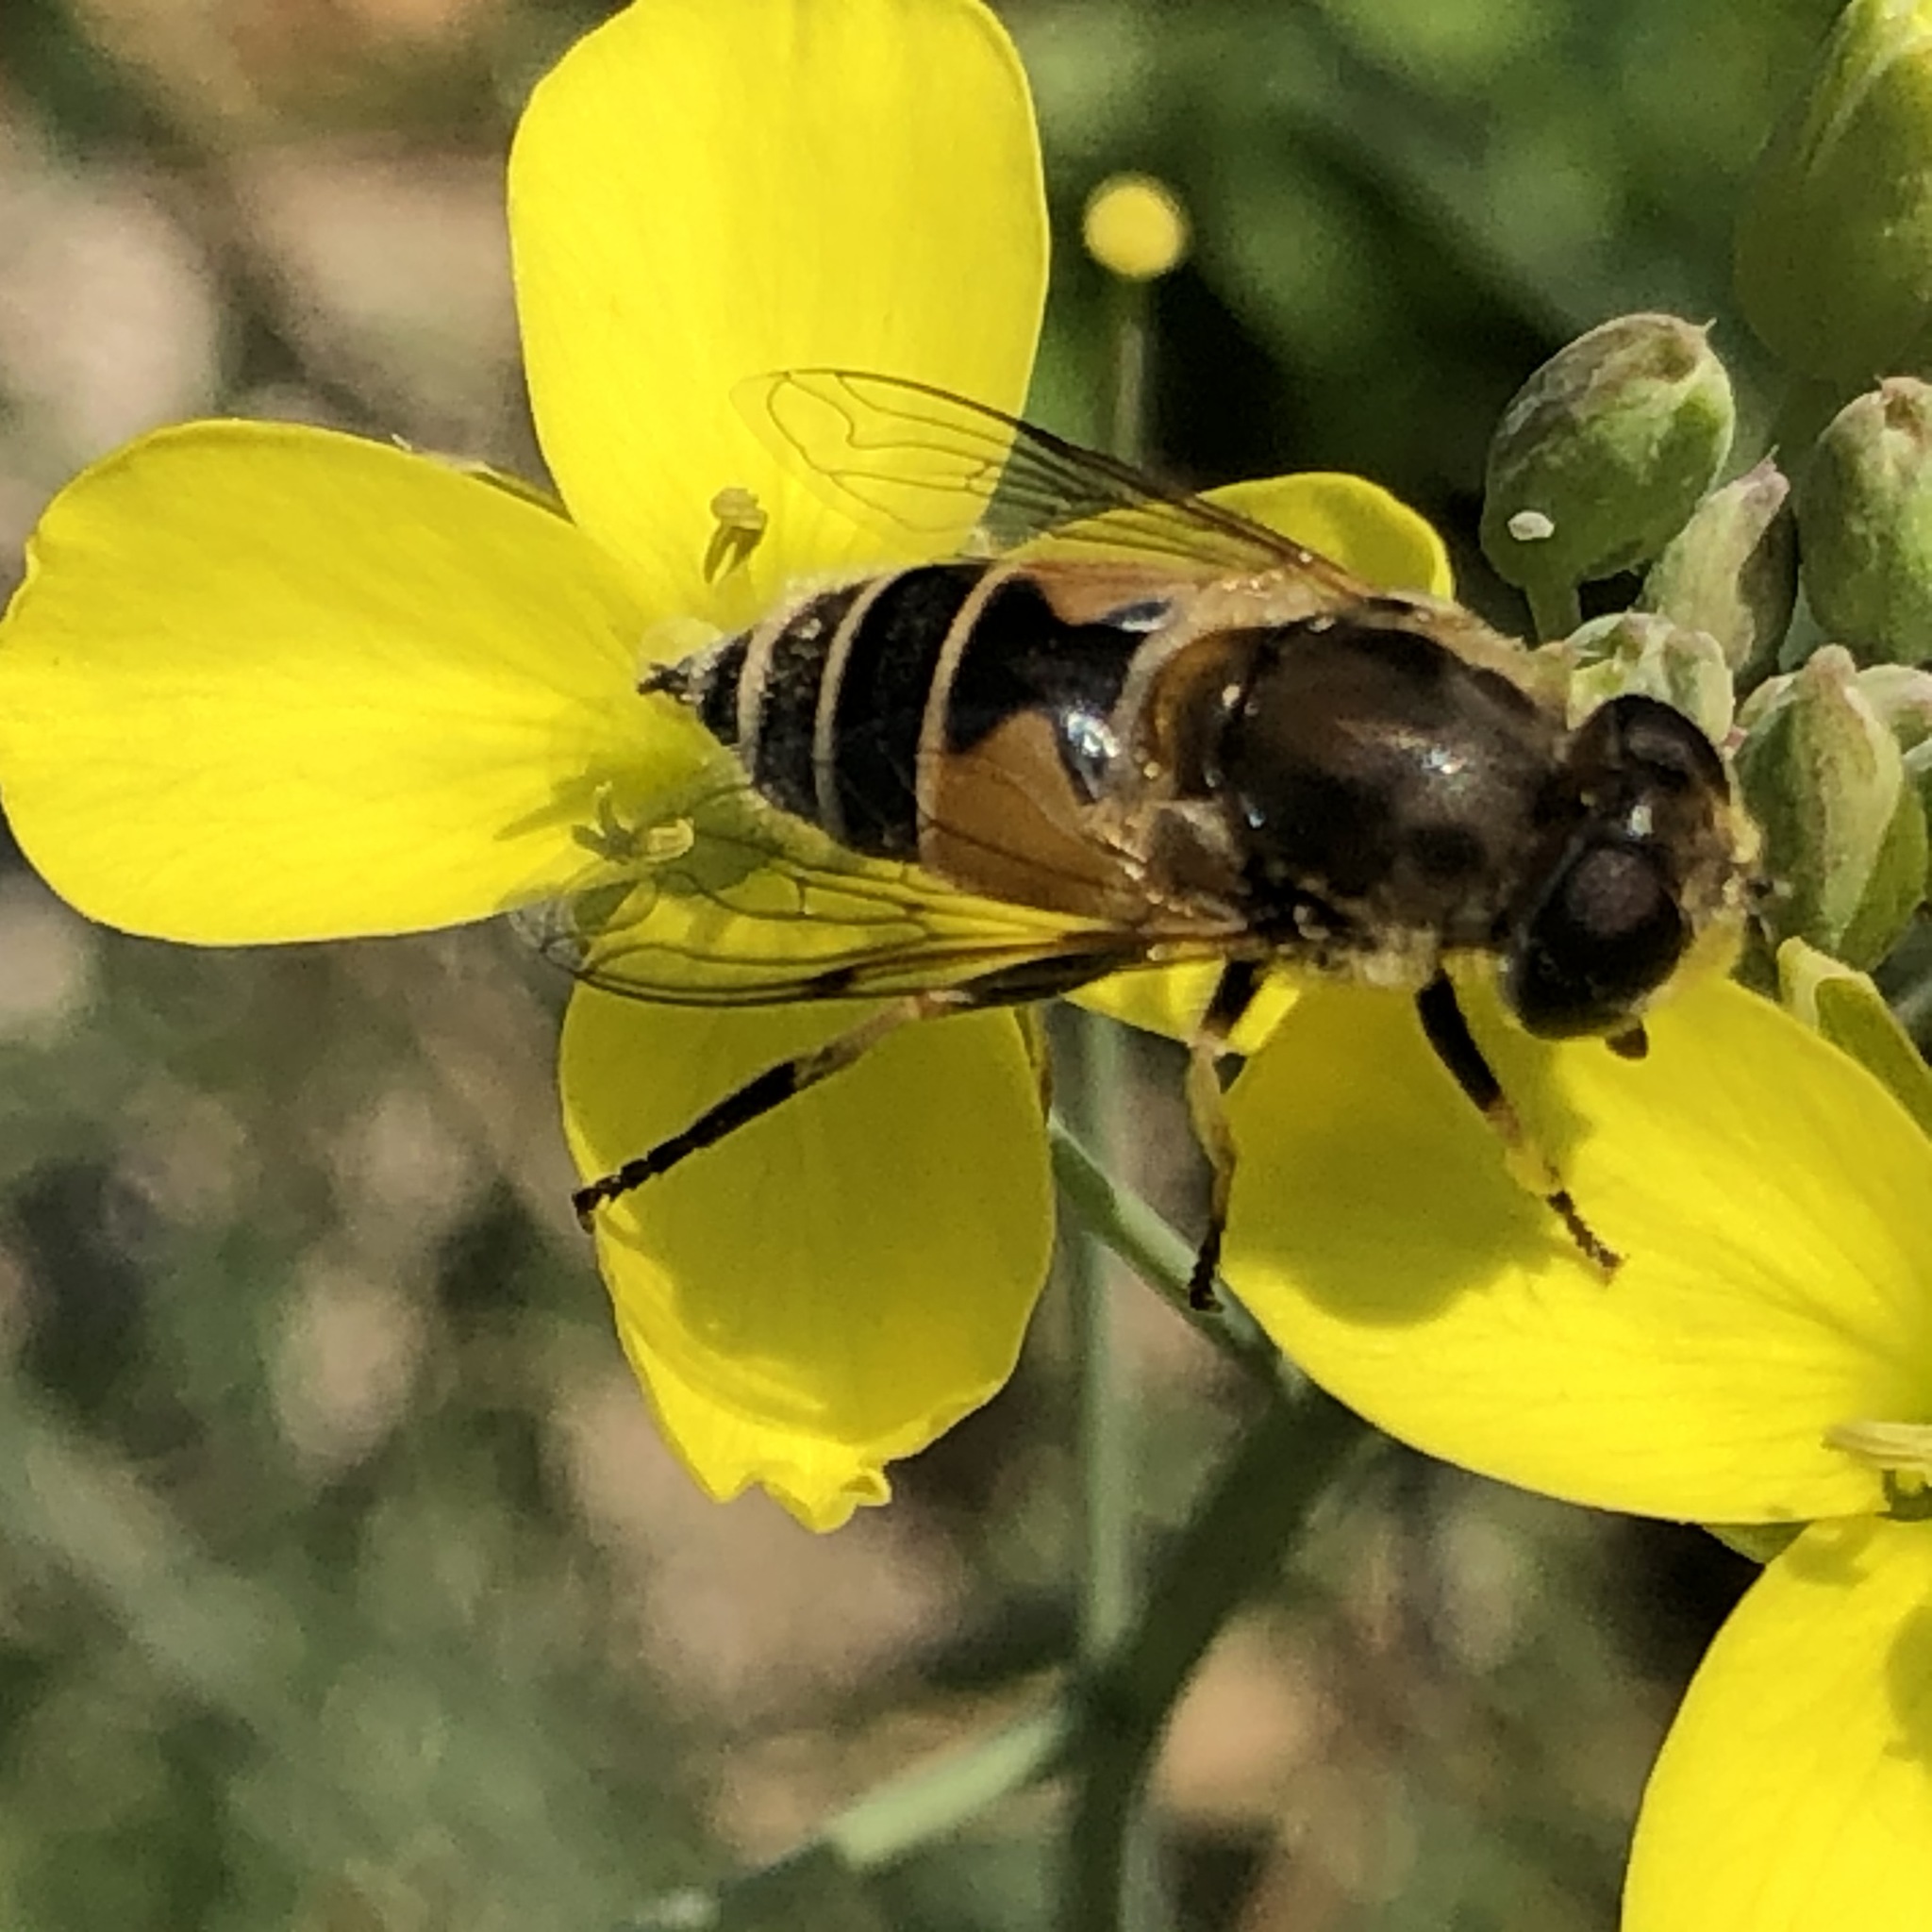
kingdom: Animalia
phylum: Arthropoda
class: Insecta
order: Diptera
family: Syrphidae
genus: Eristalis
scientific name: Eristalis arbustorum
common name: Hover fly
